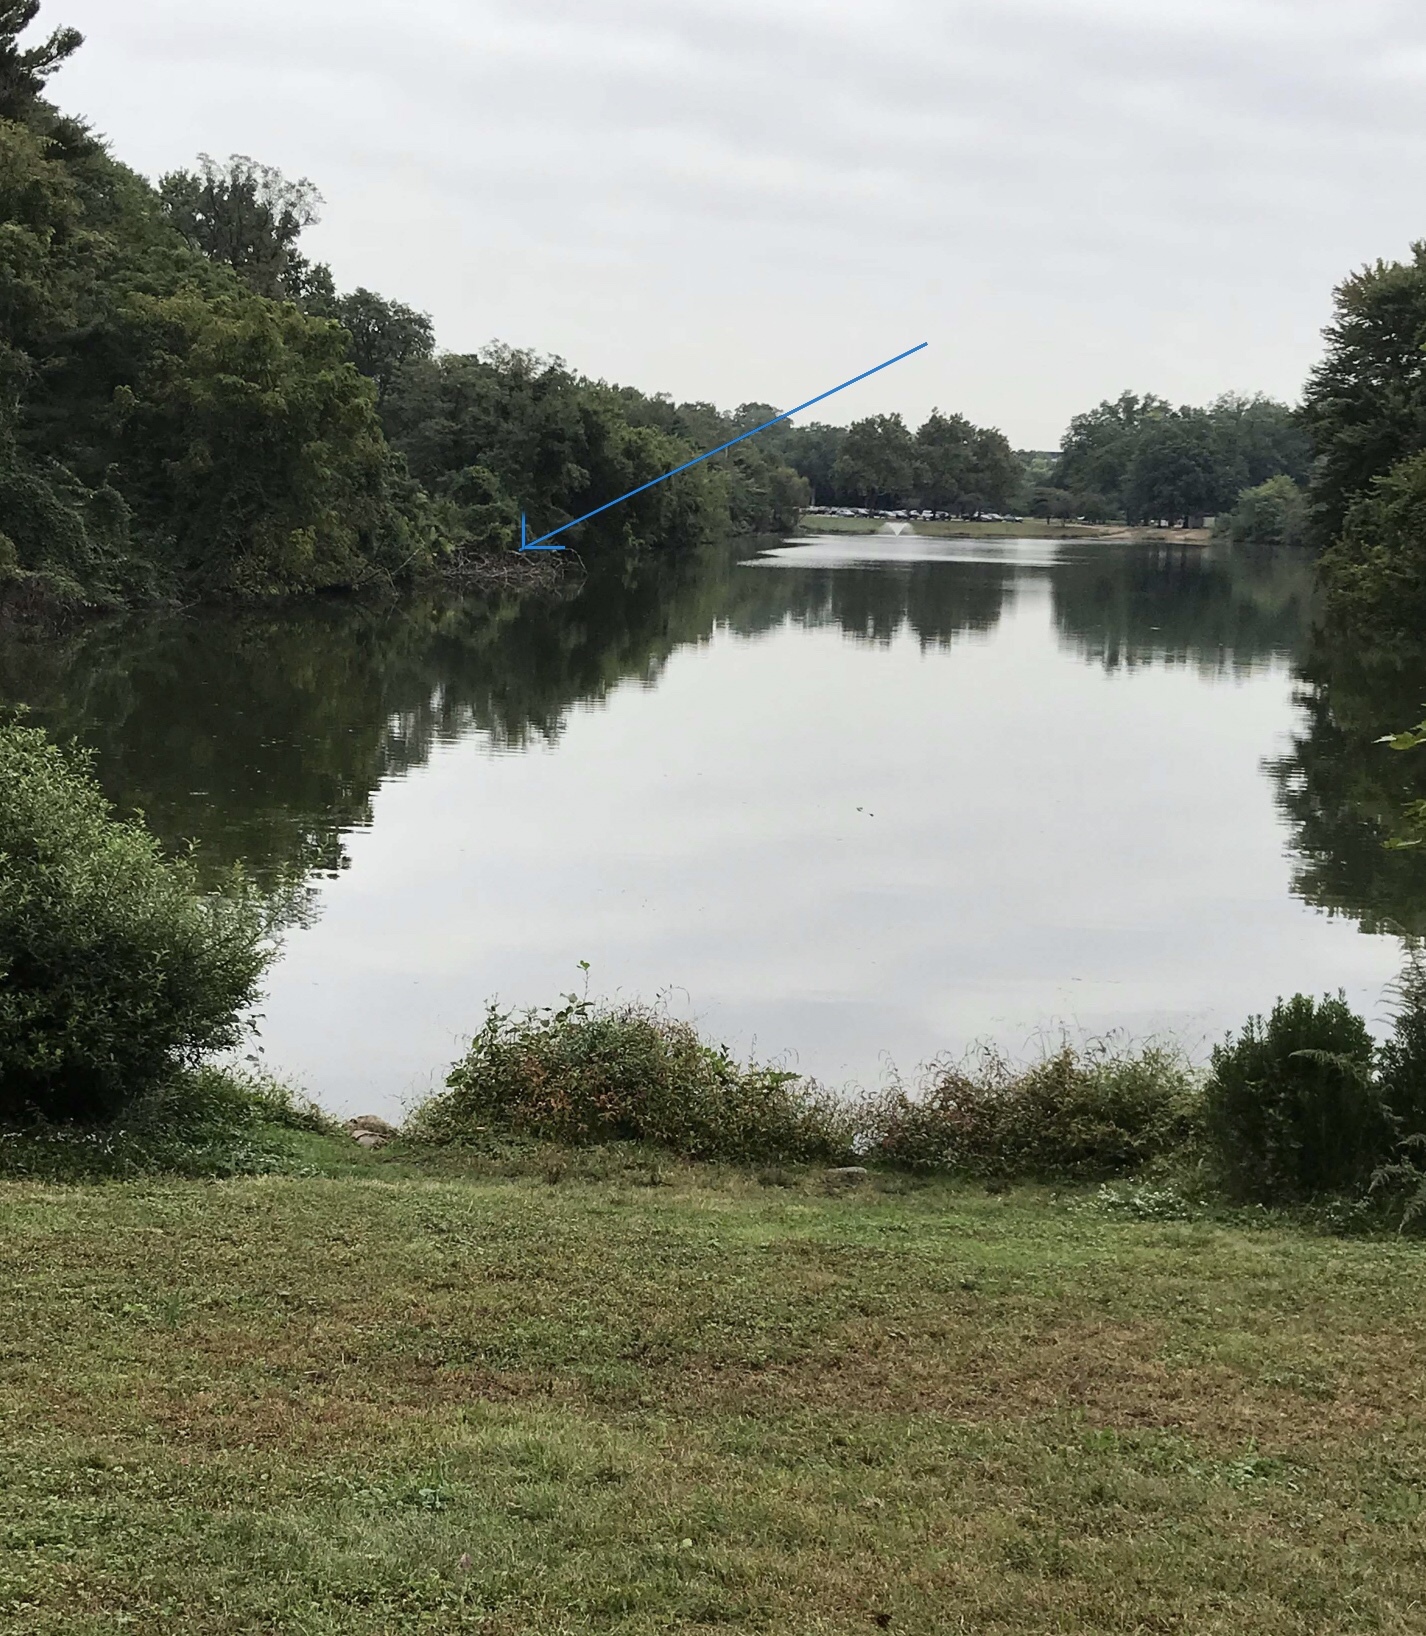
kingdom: Animalia
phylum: Chordata
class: Aves
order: Suliformes
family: Phalacrocoracidae
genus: Phalacrocorax
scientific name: Phalacrocorax auritus
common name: Double-crested cormorant
